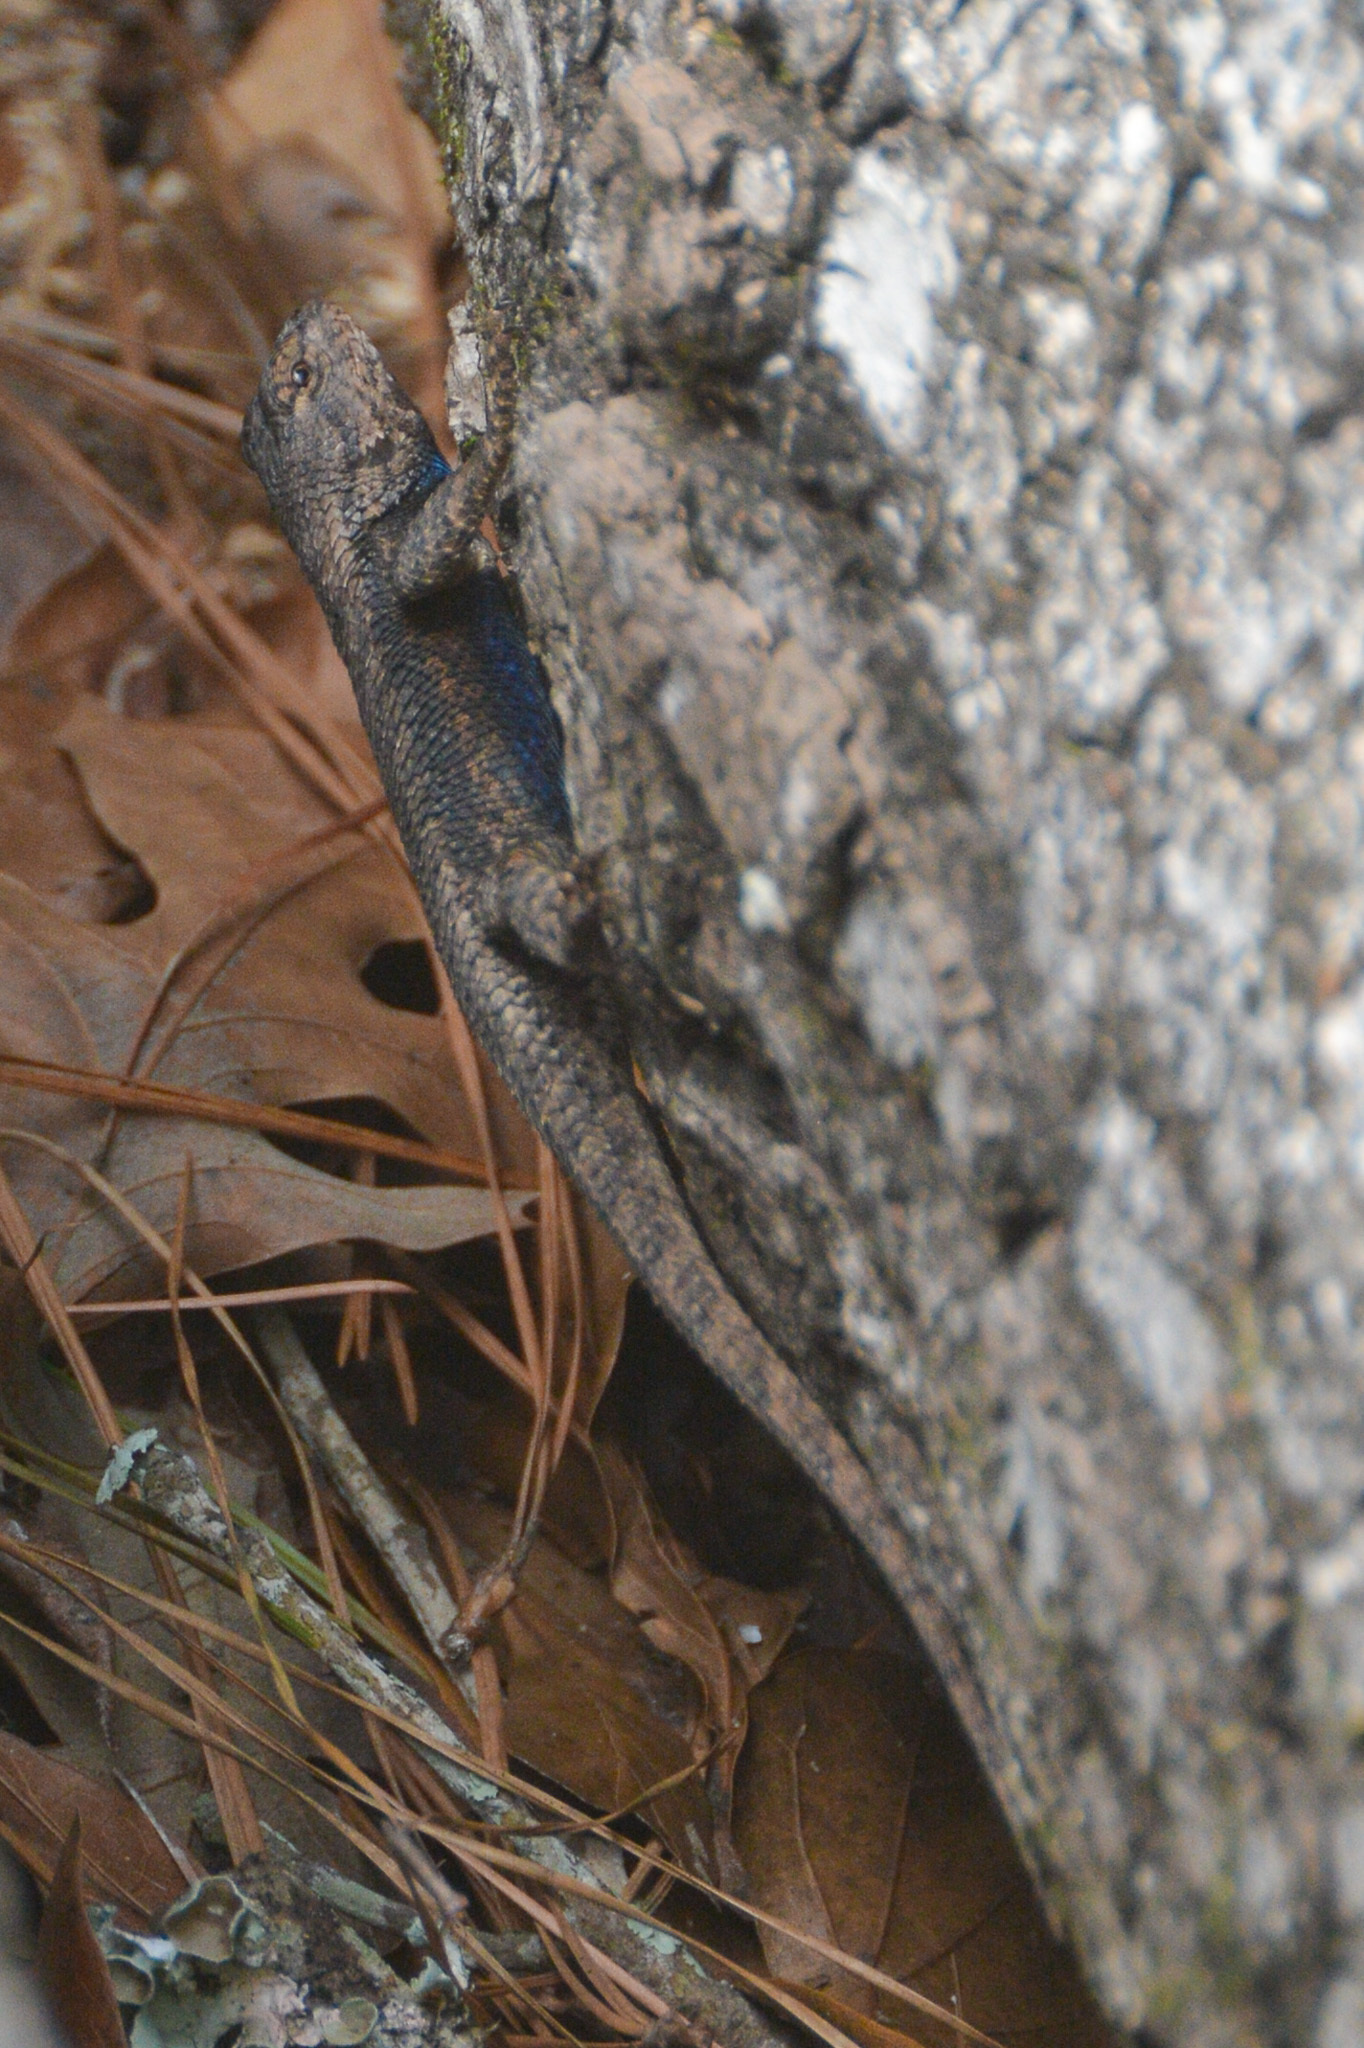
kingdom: Animalia
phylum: Chordata
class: Squamata
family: Phrynosomatidae
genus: Sceloporus
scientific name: Sceloporus consobrinus
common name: Southern prairie lizard
